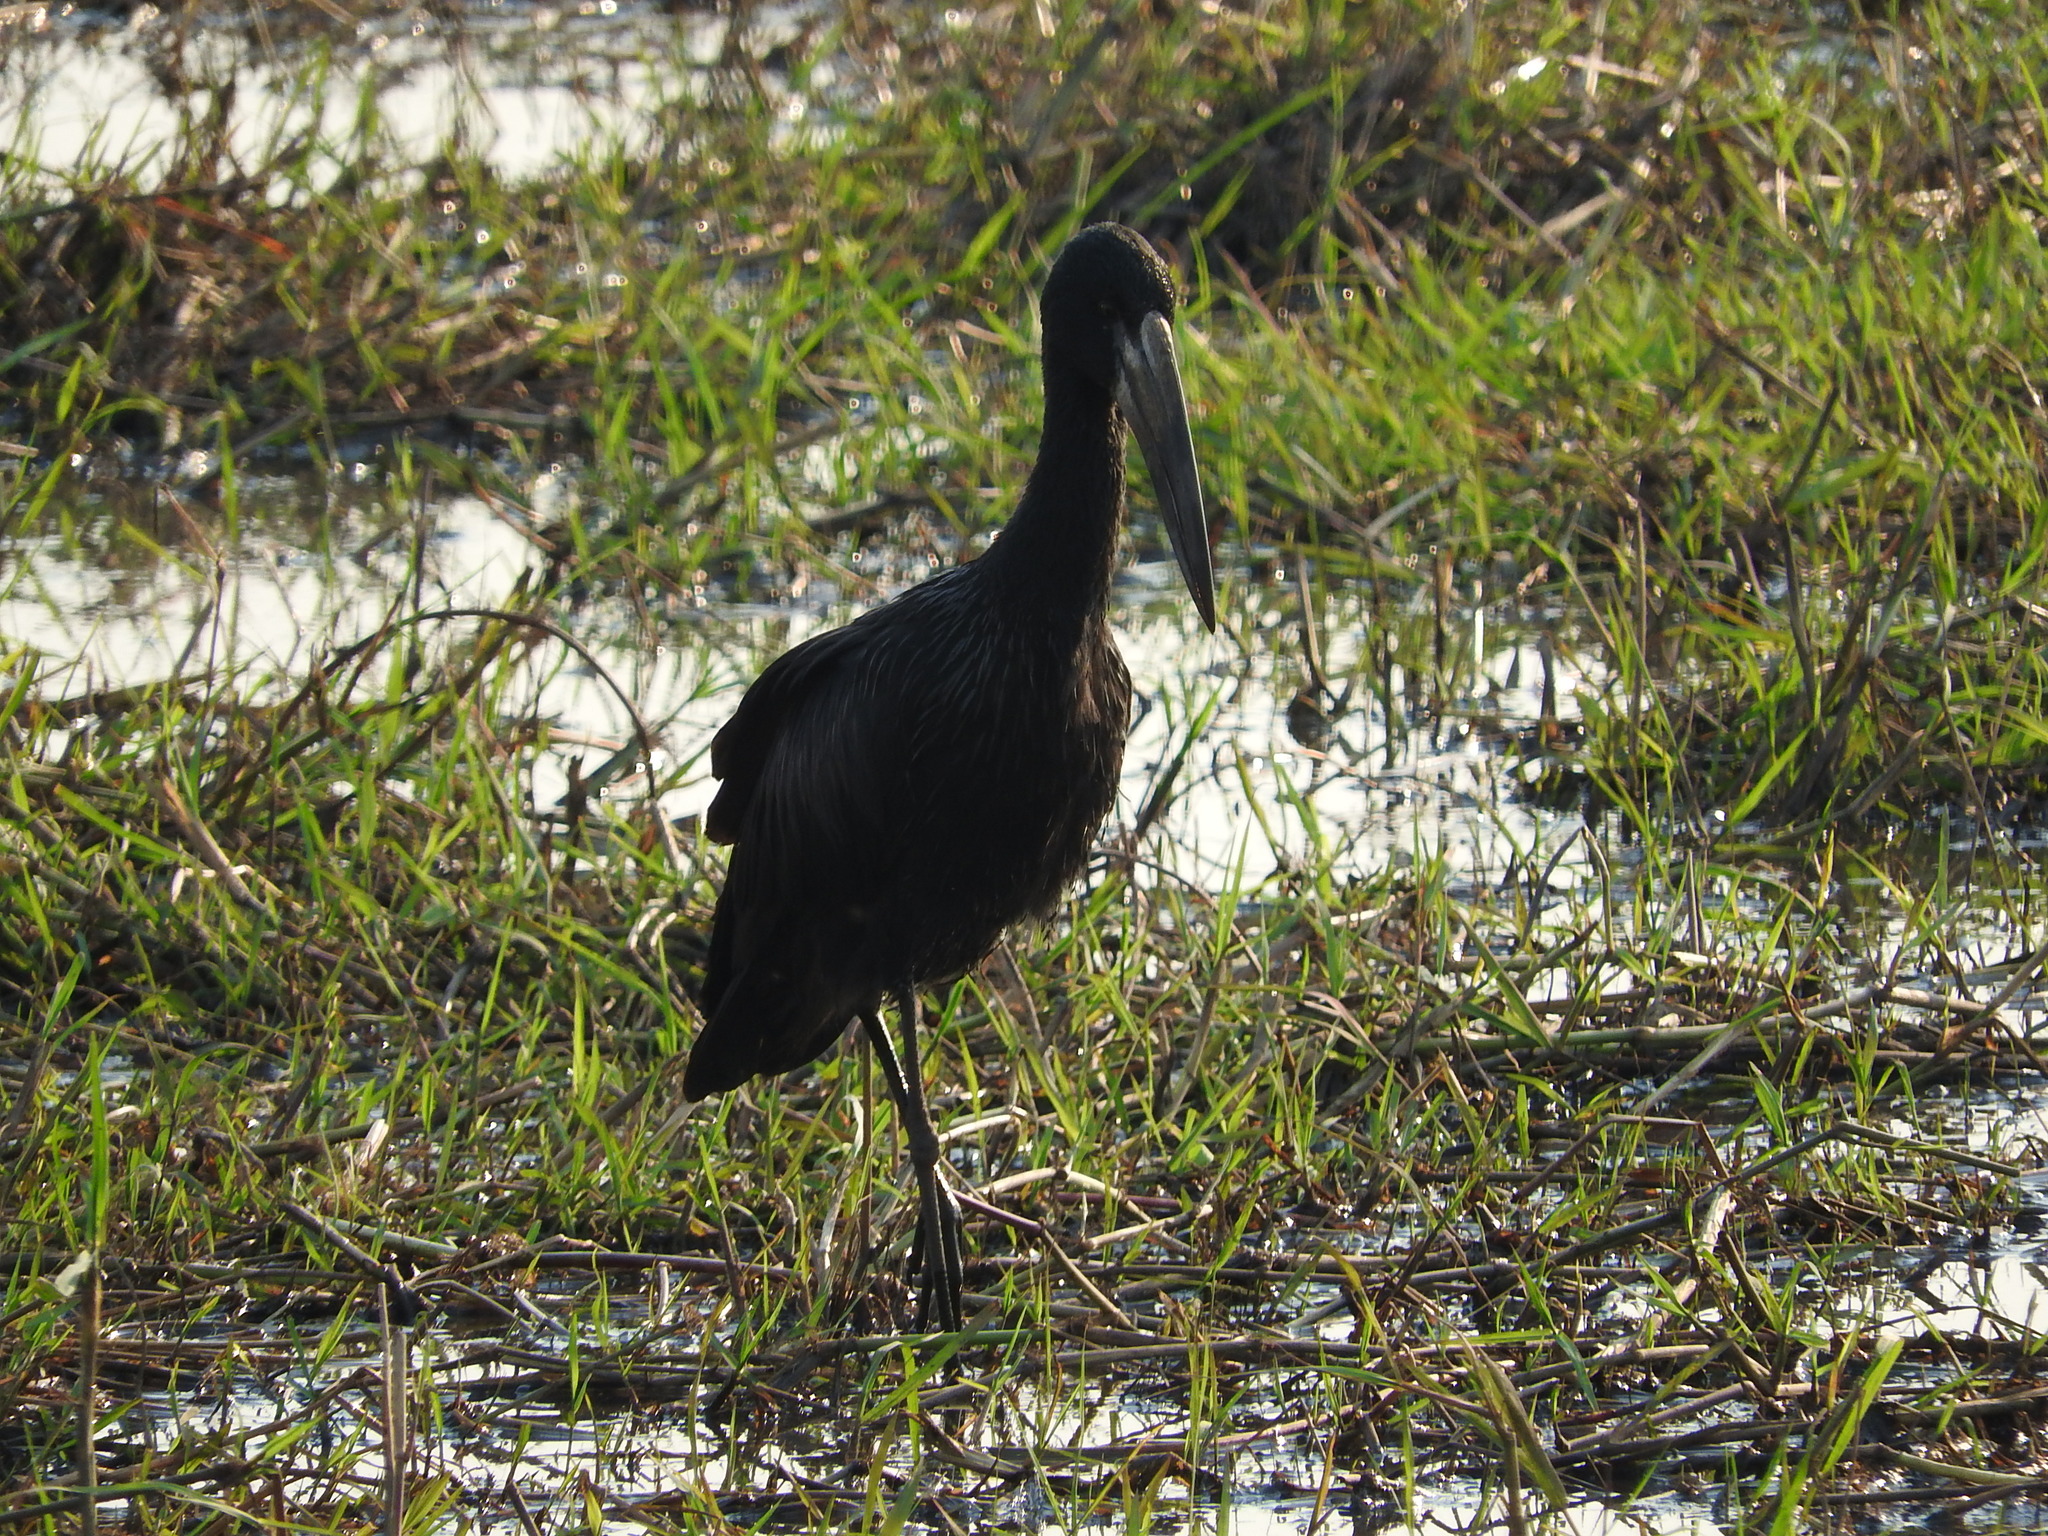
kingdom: Animalia
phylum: Chordata
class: Aves
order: Ciconiiformes
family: Ciconiidae
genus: Anastomus
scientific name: Anastomus lamelligerus
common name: African openbill
